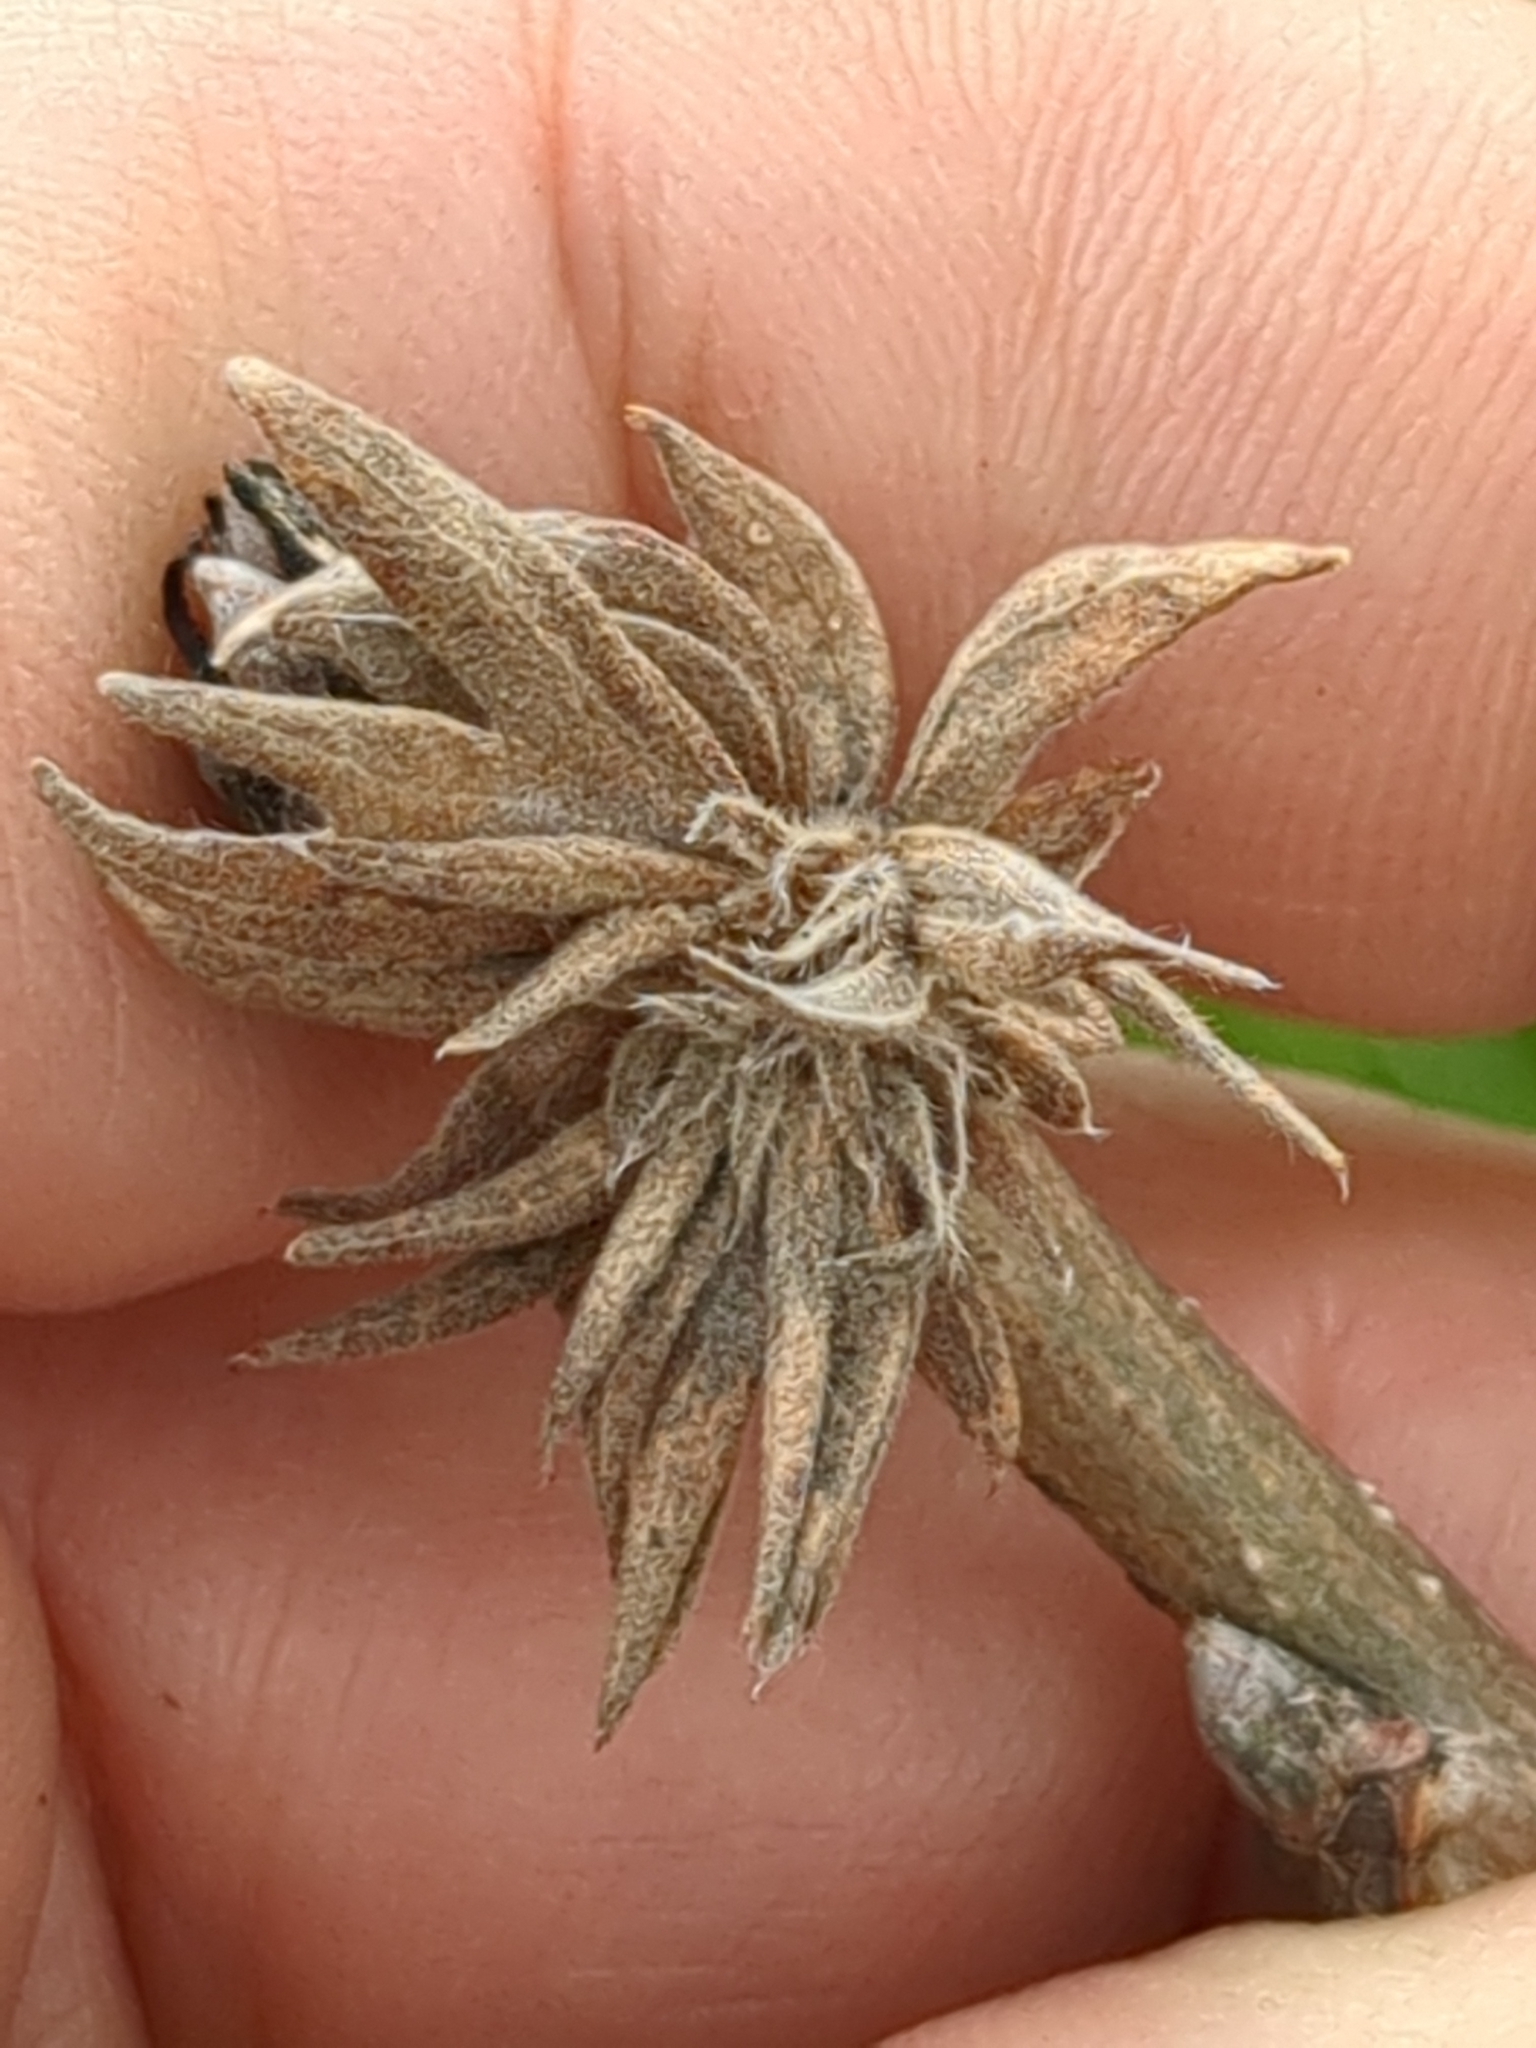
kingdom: Animalia
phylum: Arthropoda
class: Insecta
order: Hymenoptera
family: Cynipidae
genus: Andricus
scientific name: Andricus
